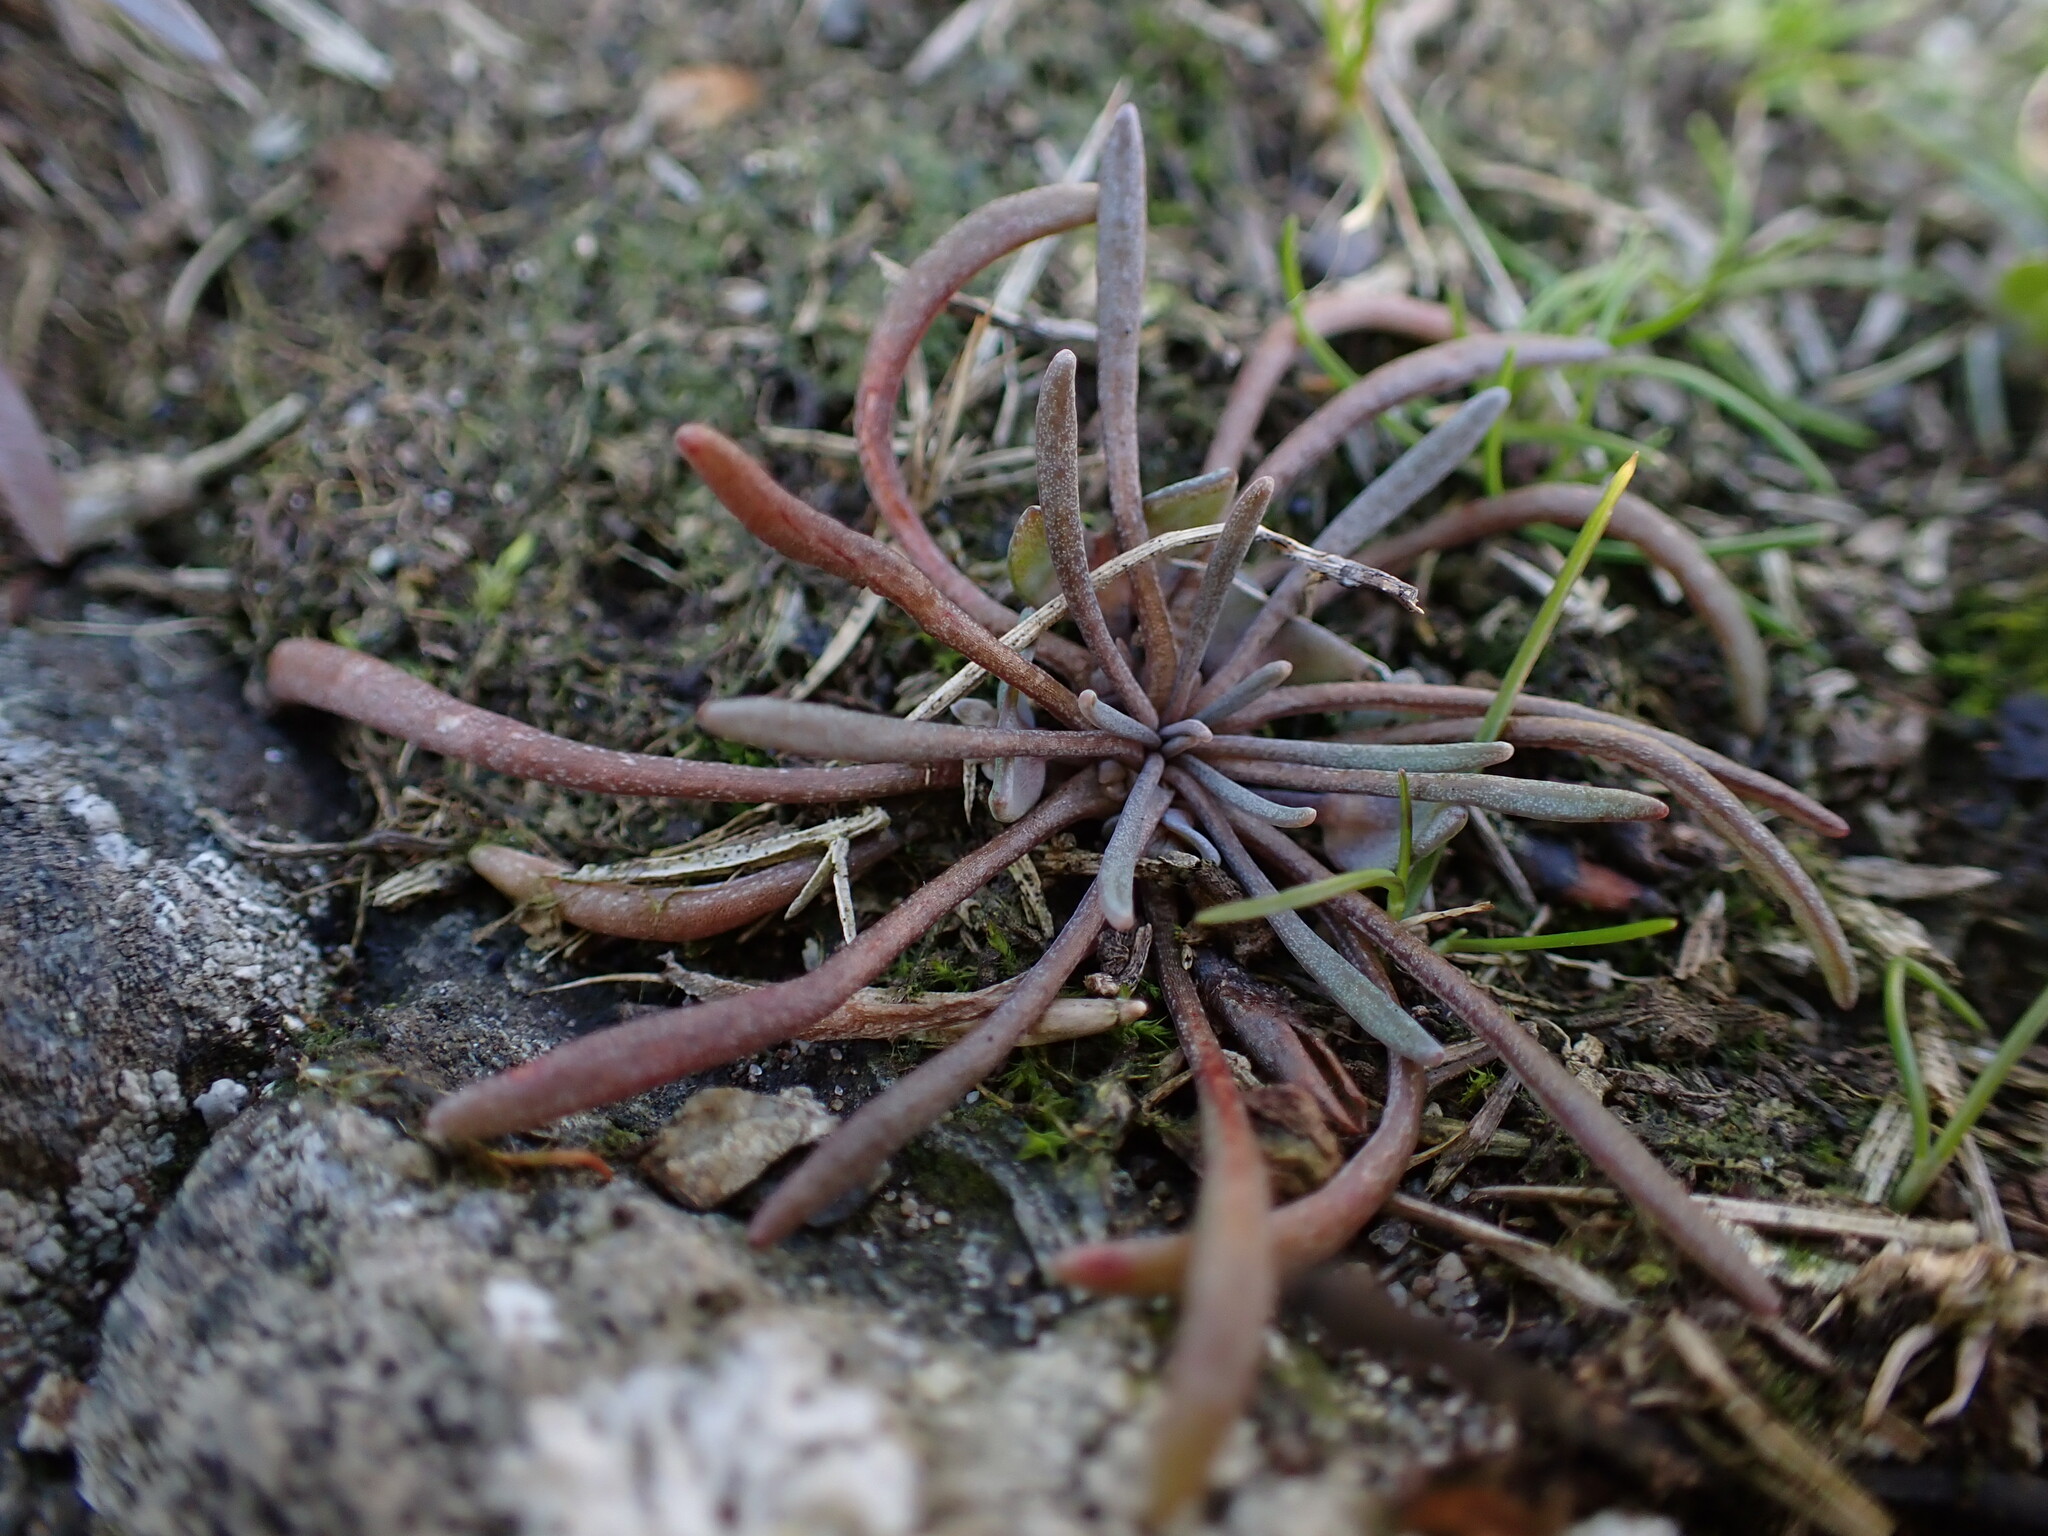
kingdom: Plantae
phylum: Tracheophyta
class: Magnoliopsida
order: Caryophyllales
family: Montiaceae
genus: Claytonia
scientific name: Claytonia exigua
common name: Pale spring beauty
